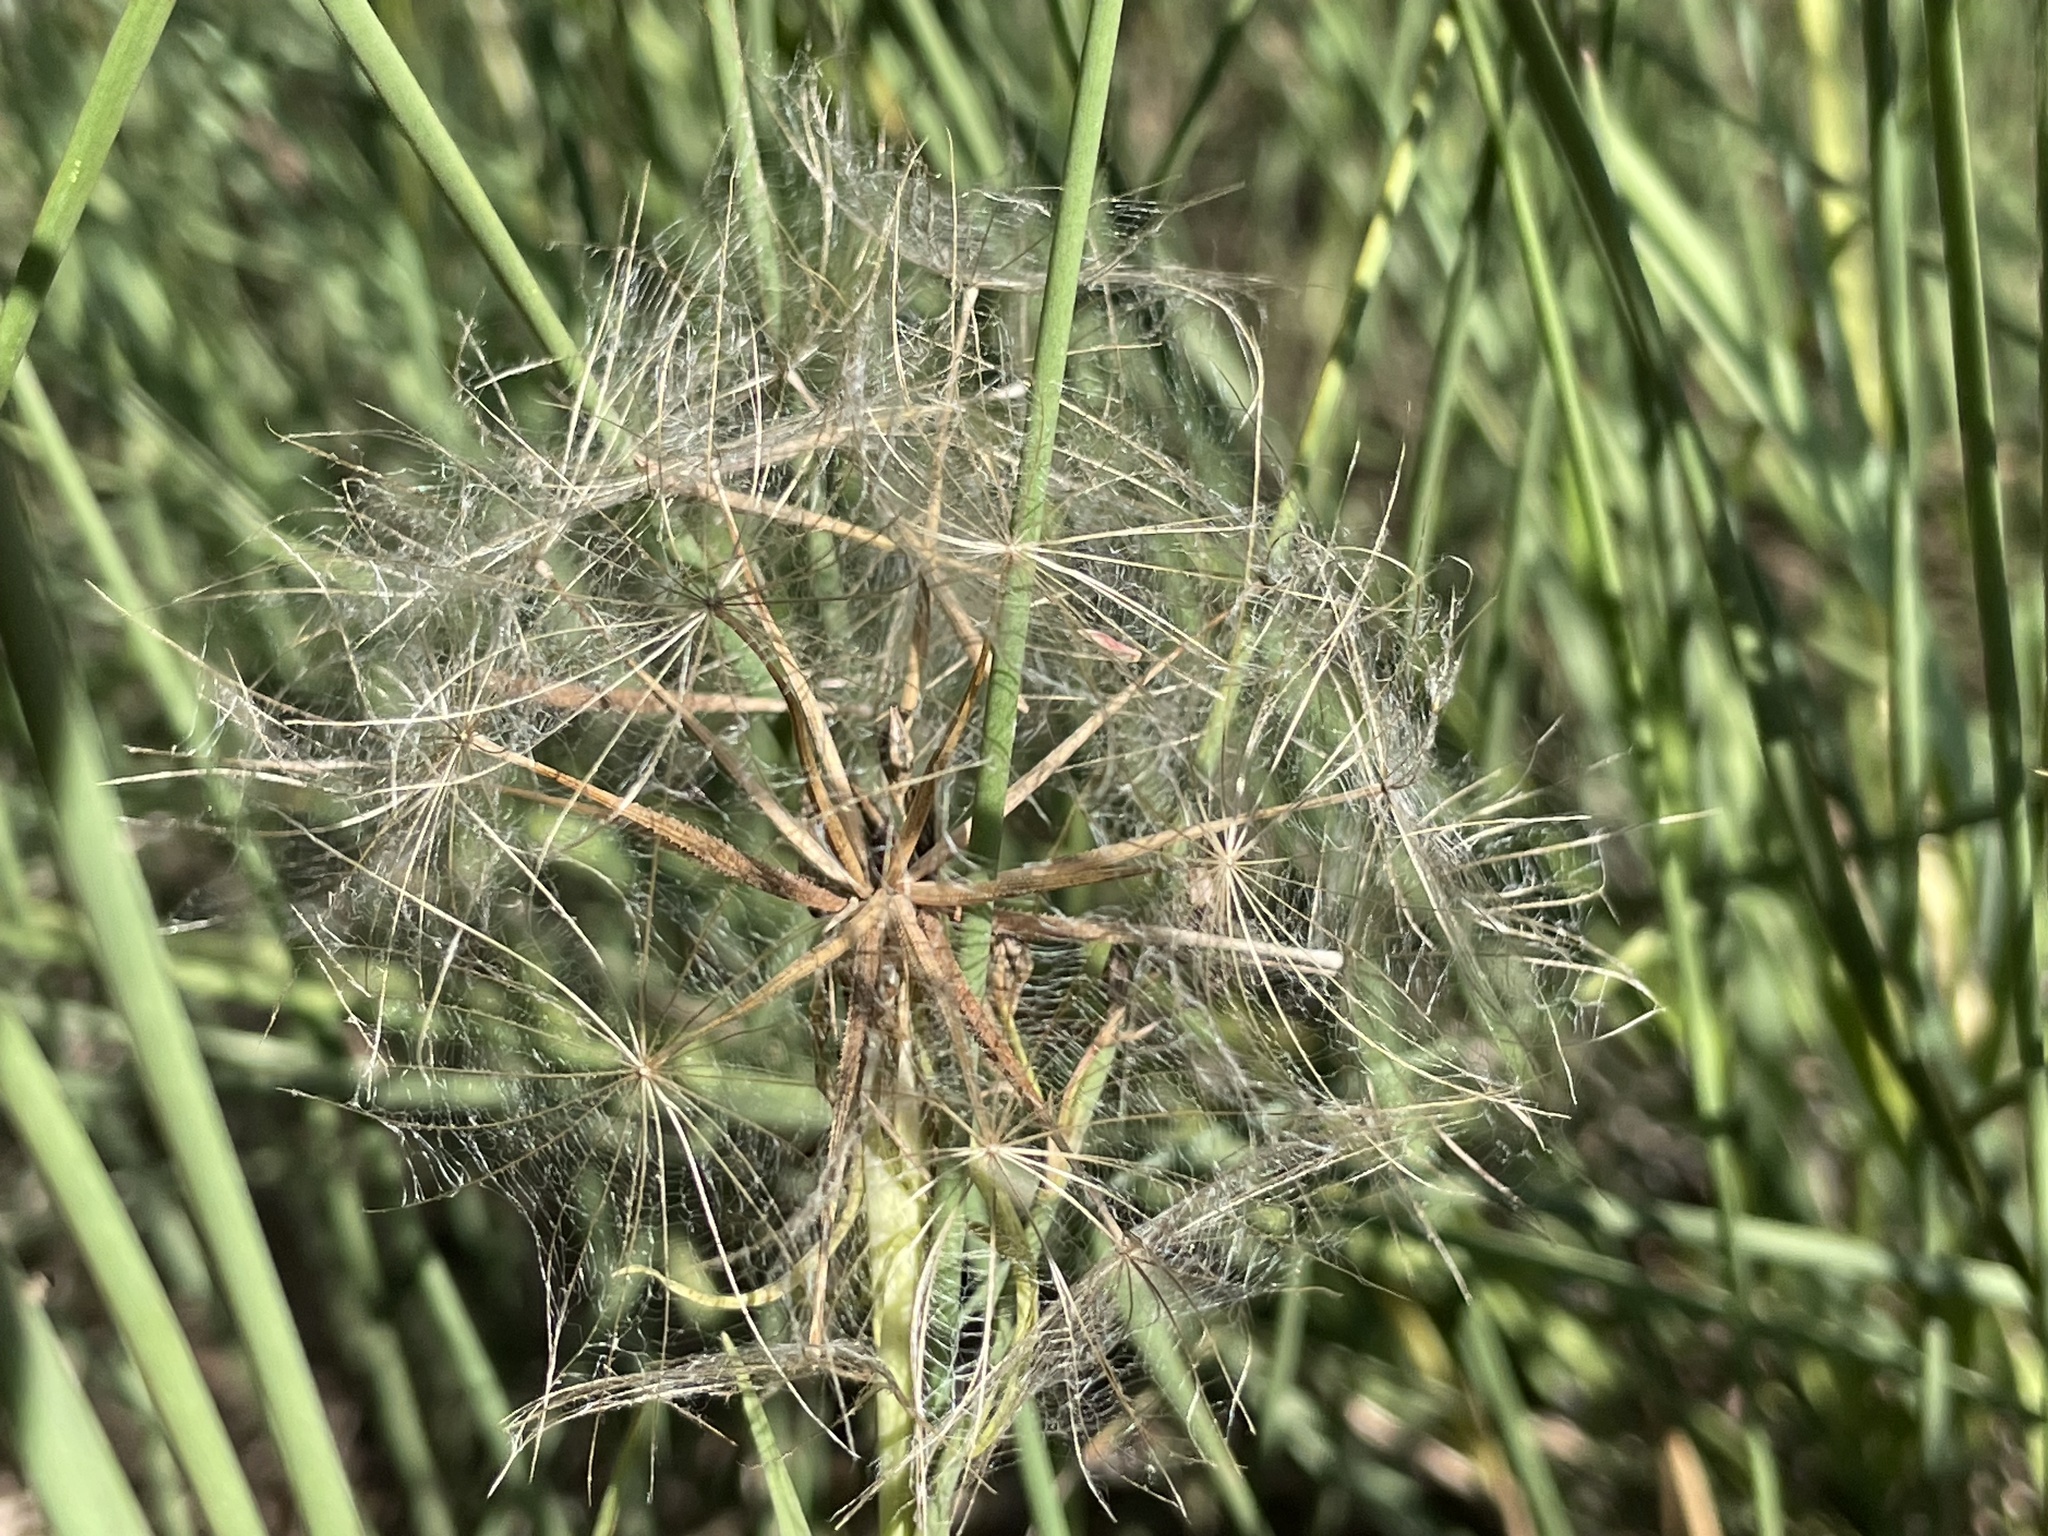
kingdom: Plantae
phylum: Tracheophyta
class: Magnoliopsida
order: Asterales
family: Asteraceae
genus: Tragopogon
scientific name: Tragopogon dubius
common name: Yellow salsify
